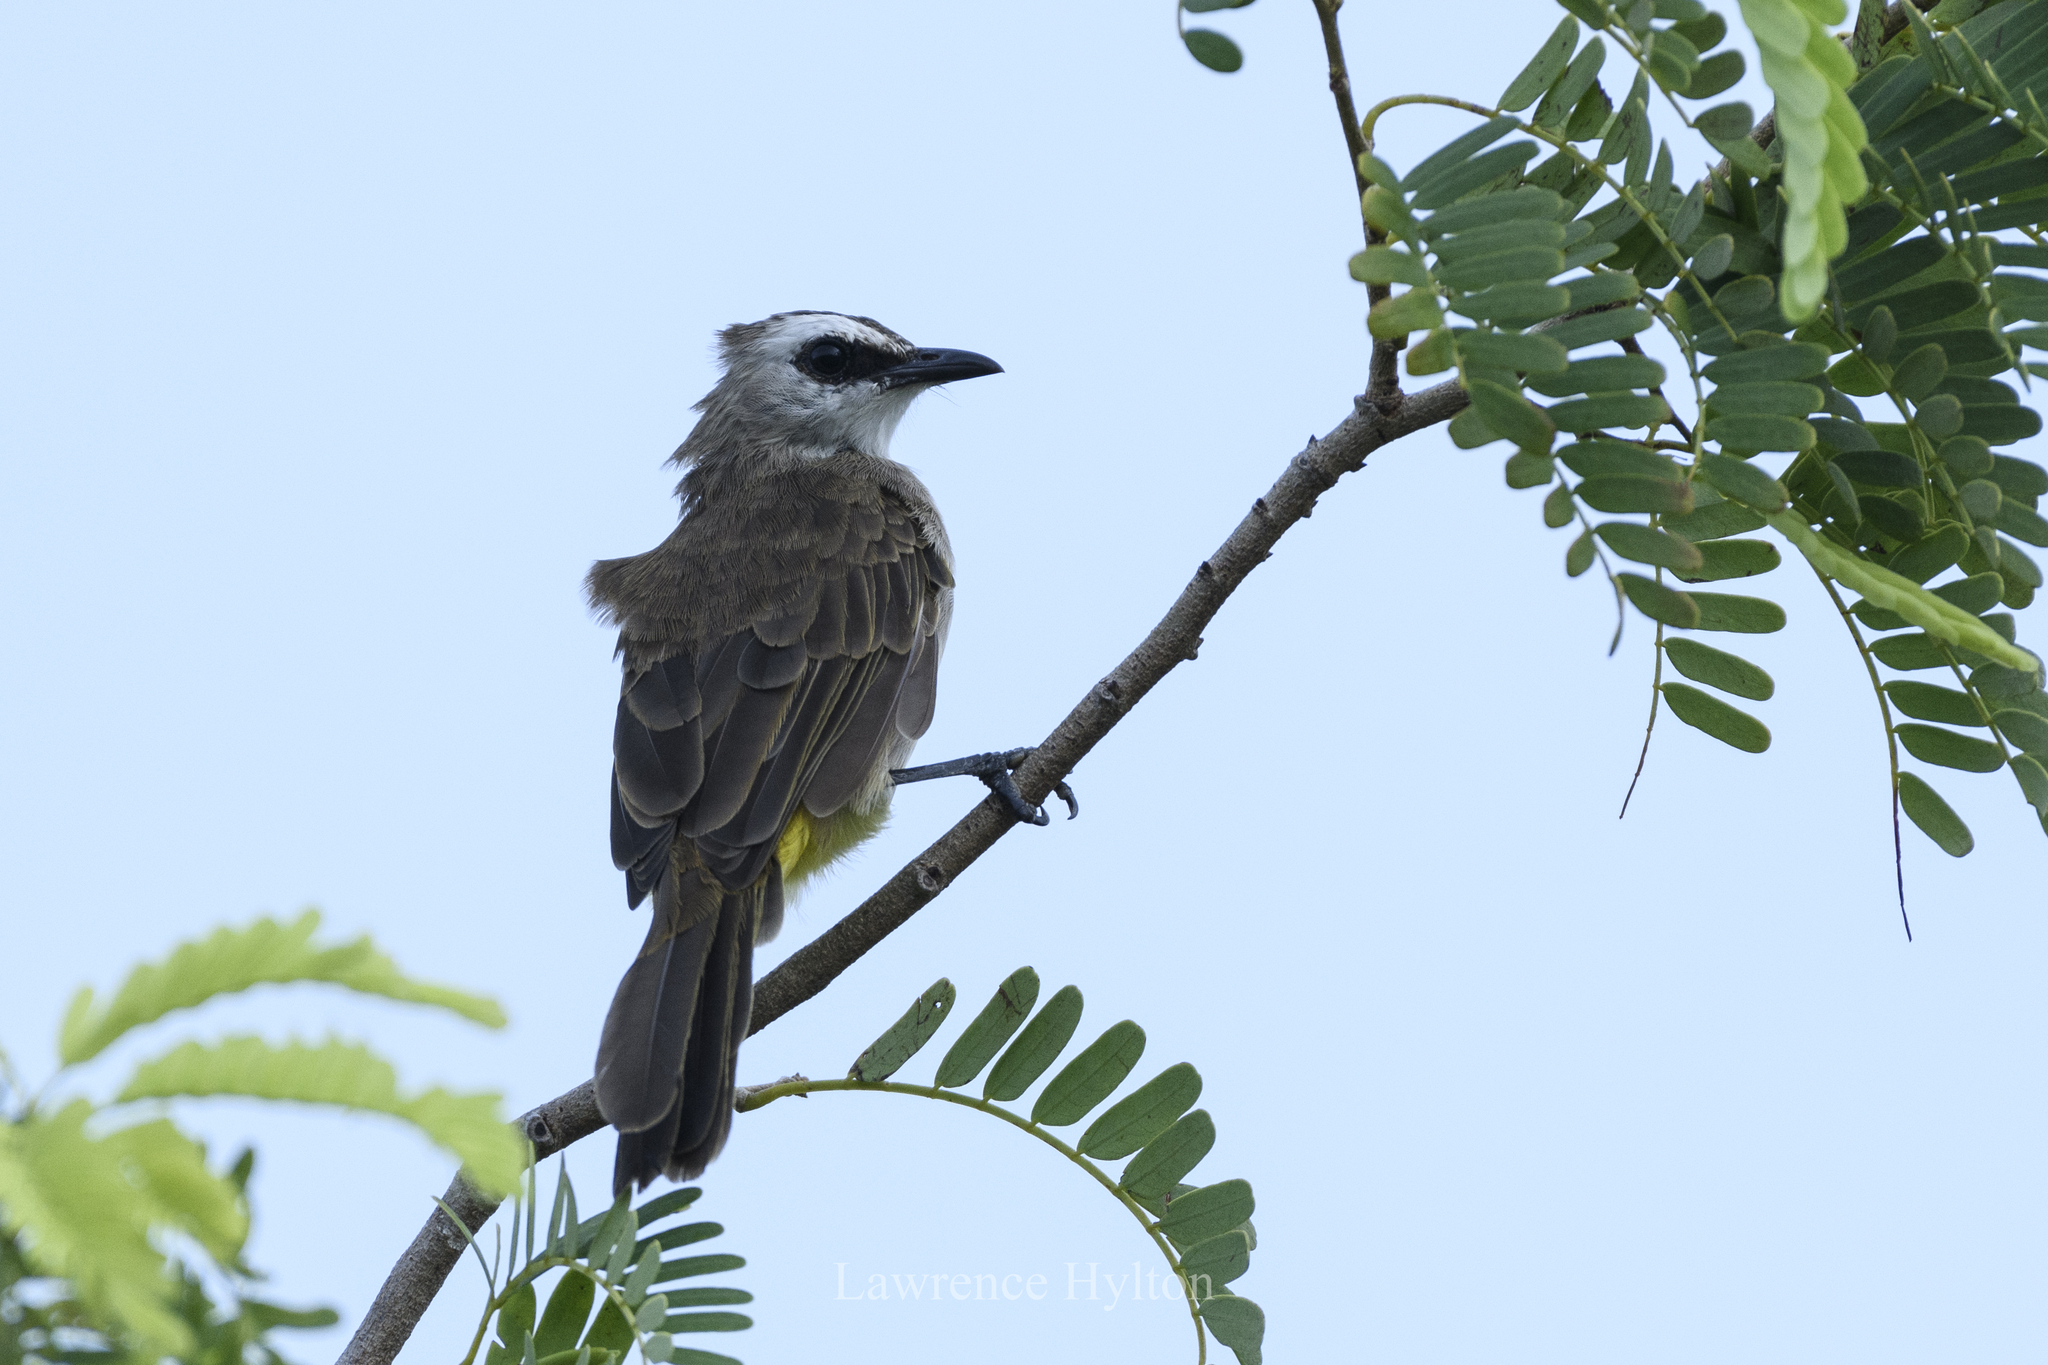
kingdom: Animalia
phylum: Chordata
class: Aves
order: Passeriformes
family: Pycnonotidae
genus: Pycnonotus
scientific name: Pycnonotus goiavier
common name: Yellow-vented bulbul
